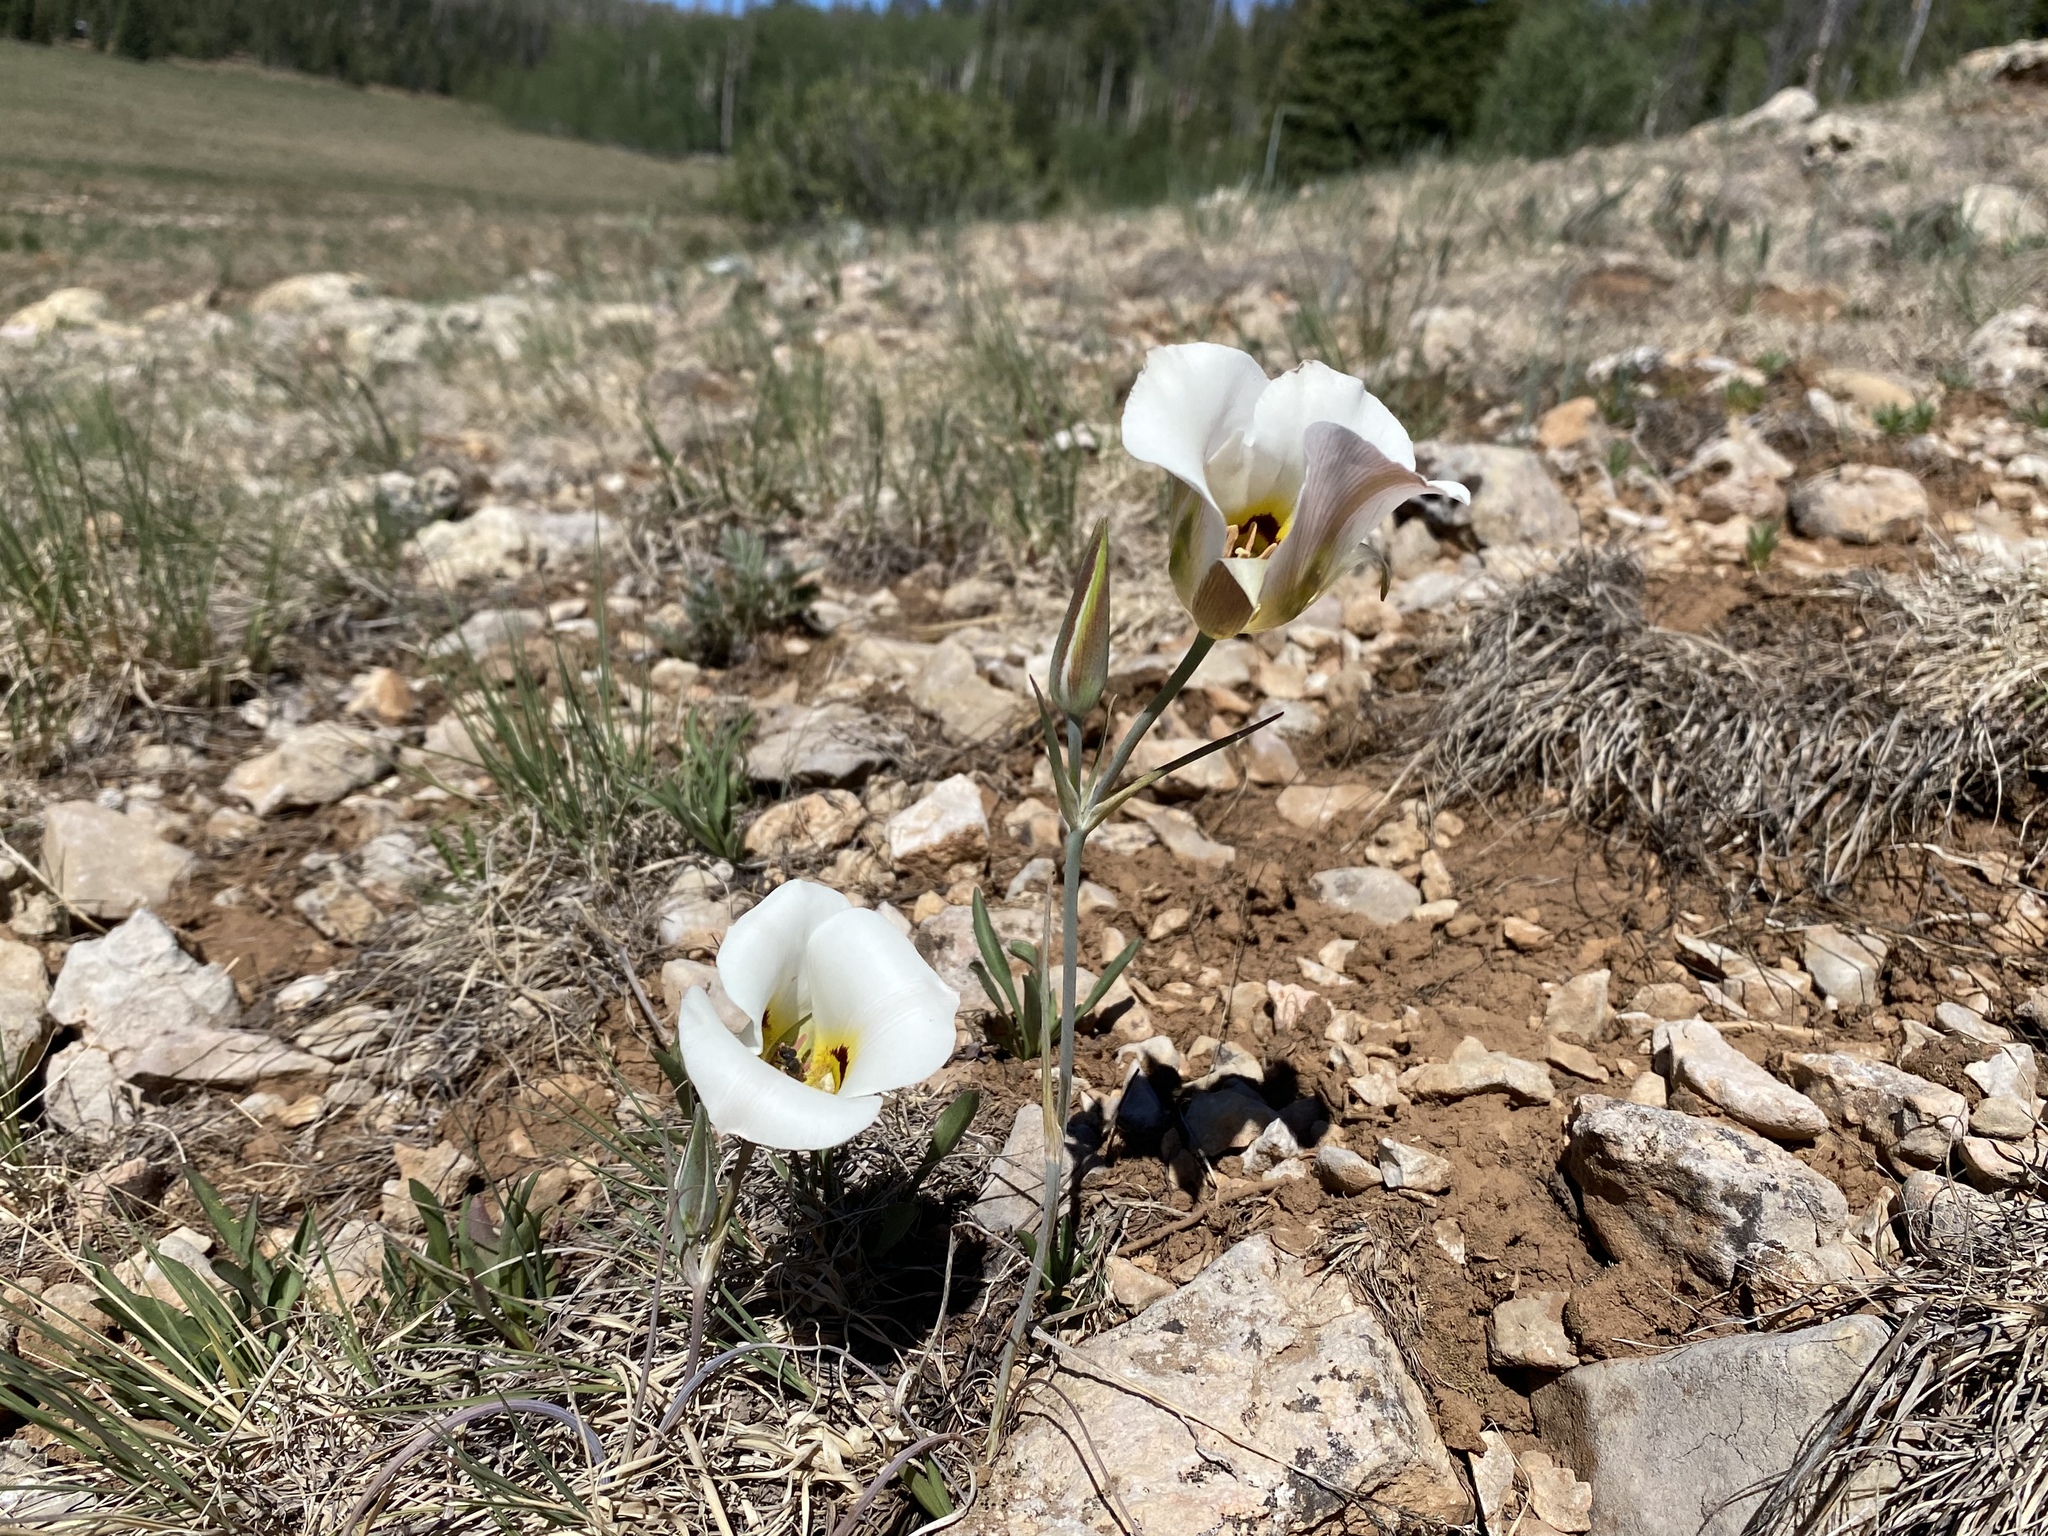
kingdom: Plantae
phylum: Tracheophyta
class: Liliopsida
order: Liliales
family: Liliaceae
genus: Calochortus
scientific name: Calochortus nuttallii
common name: Sego-lily
